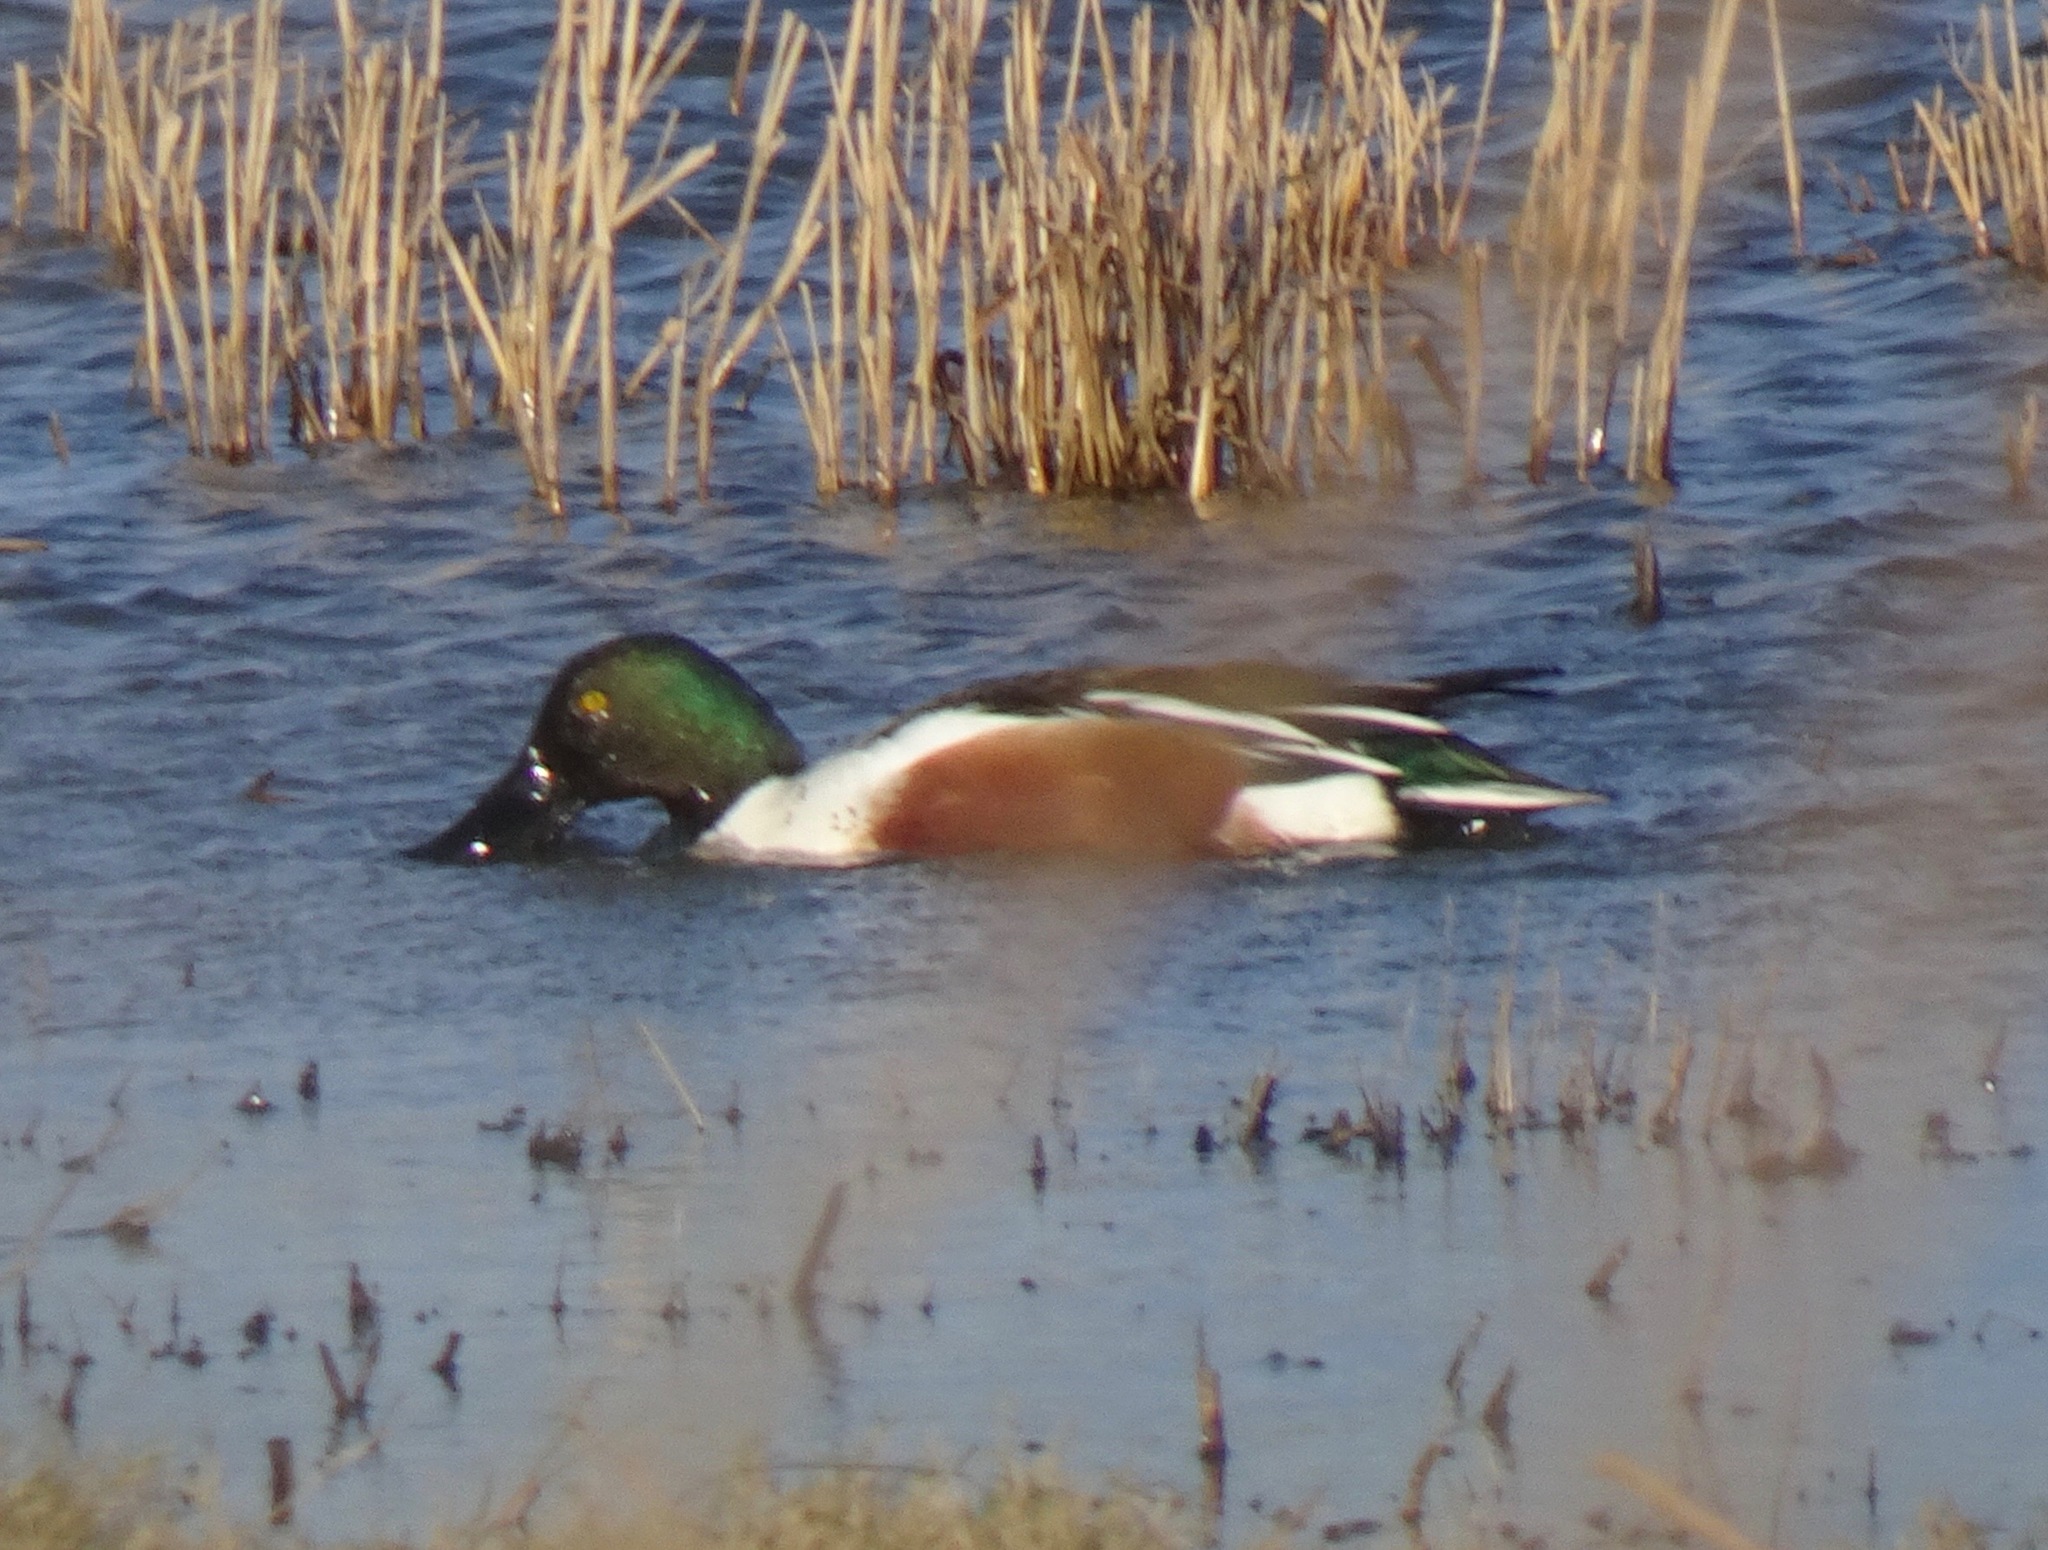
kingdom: Animalia
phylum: Chordata
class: Aves
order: Anseriformes
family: Anatidae
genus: Spatula
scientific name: Spatula clypeata
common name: Northern shoveler
